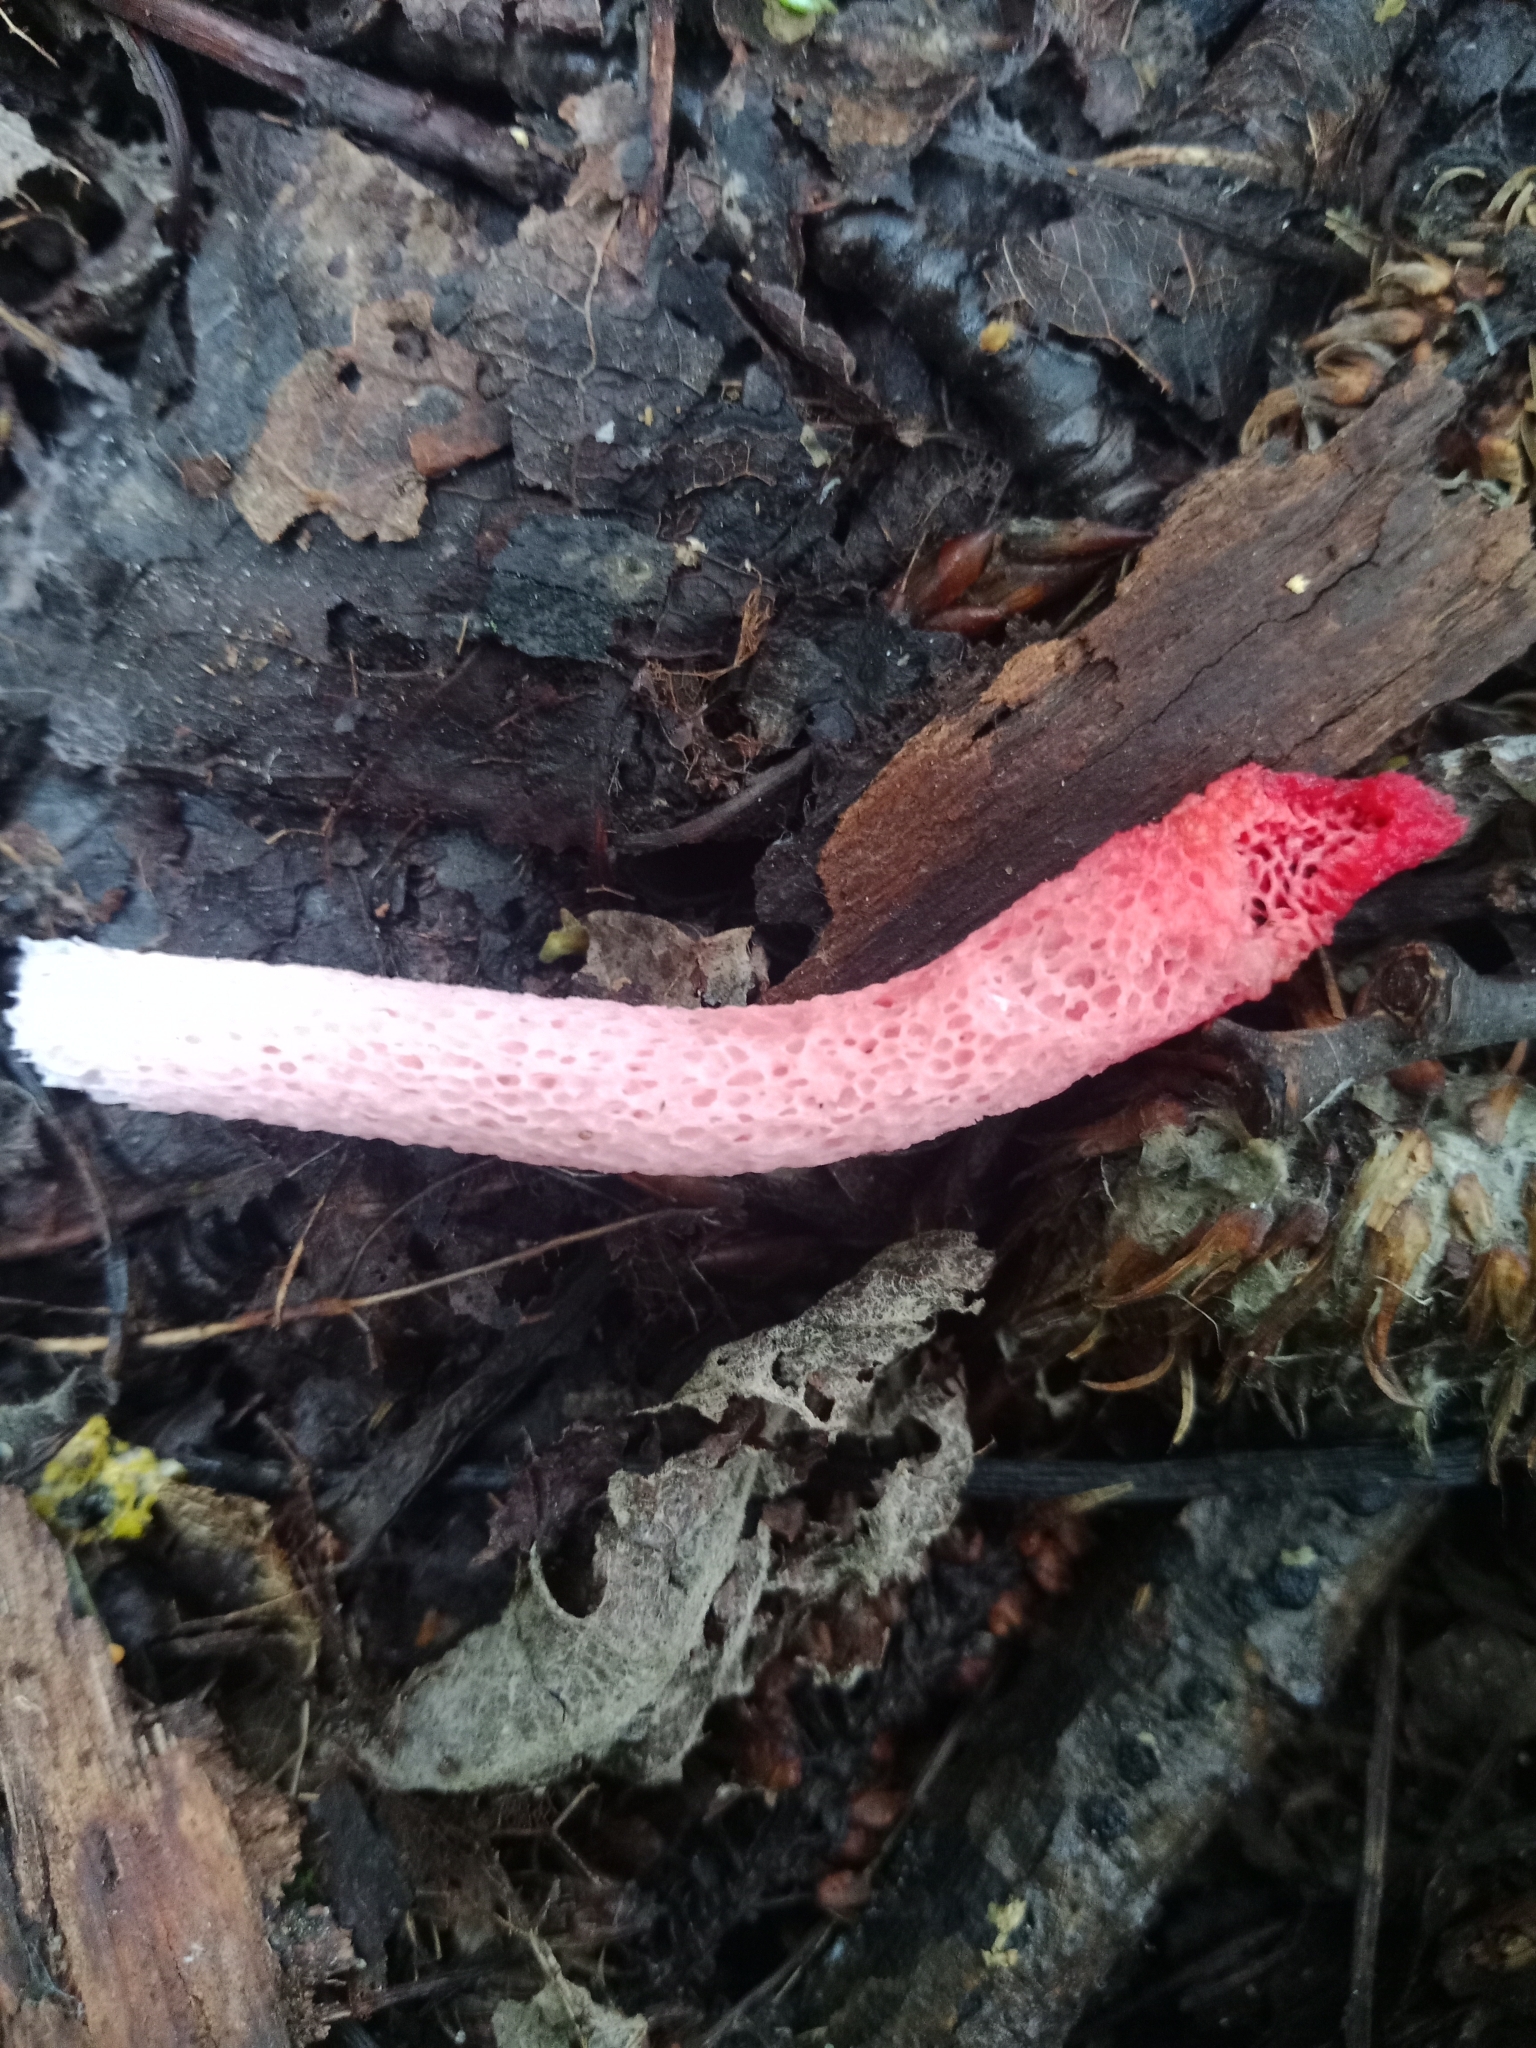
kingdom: Fungi
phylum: Basidiomycota
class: Agaricomycetes
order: Phallales
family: Phallaceae
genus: Mutinus
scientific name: Mutinus ravenelii
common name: Red stinkhorn
